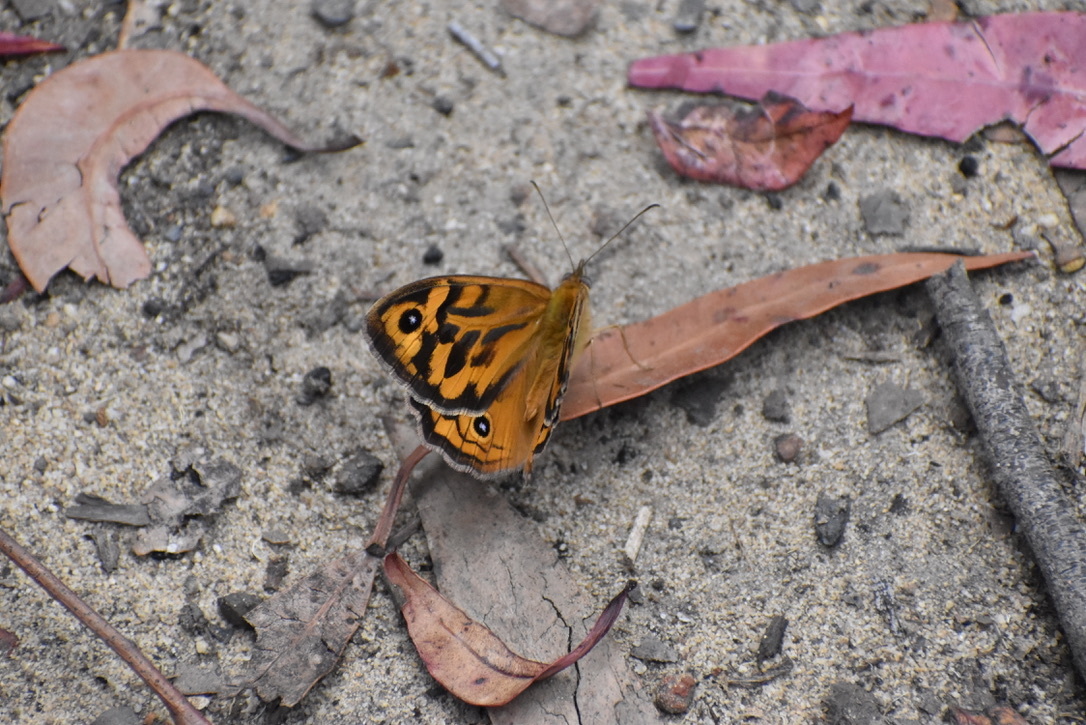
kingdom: Animalia
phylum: Arthropoda
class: Insecta
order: Lepidoptera
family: Nymphalidae
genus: Heteronympha
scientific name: Heteronympha merope
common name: Common brown
